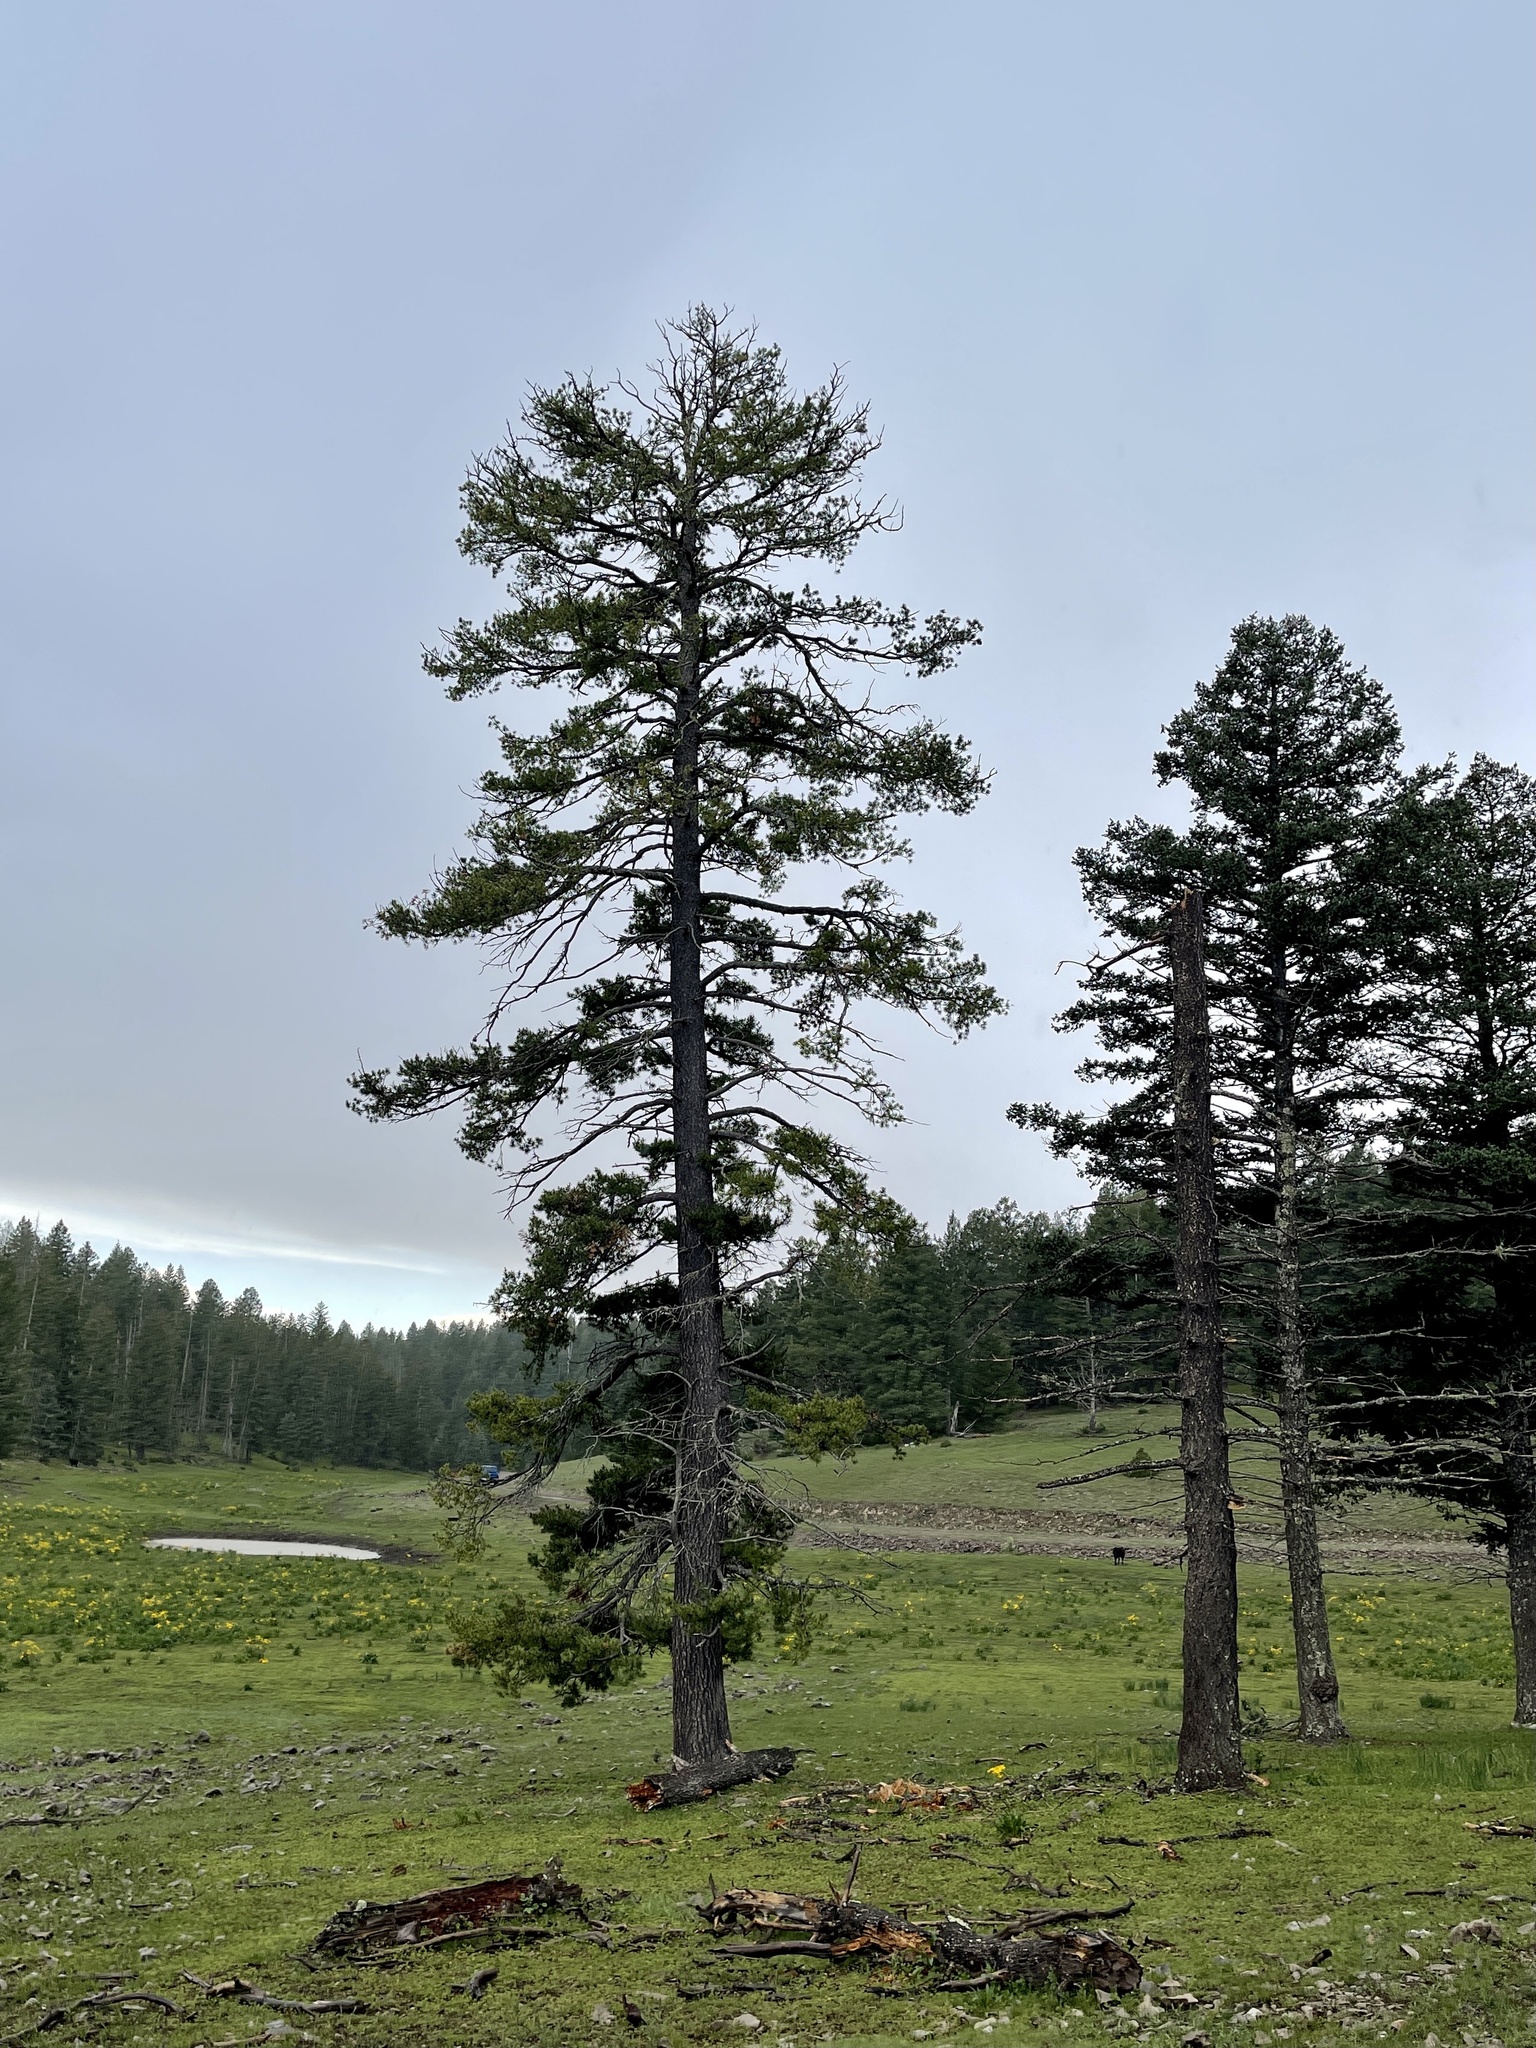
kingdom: Plantae
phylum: Tracheophyta
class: Pinopsida
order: Pinales
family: Pinaceae
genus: Pinus
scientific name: Pinus strobiformis
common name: Southwestern white pine
